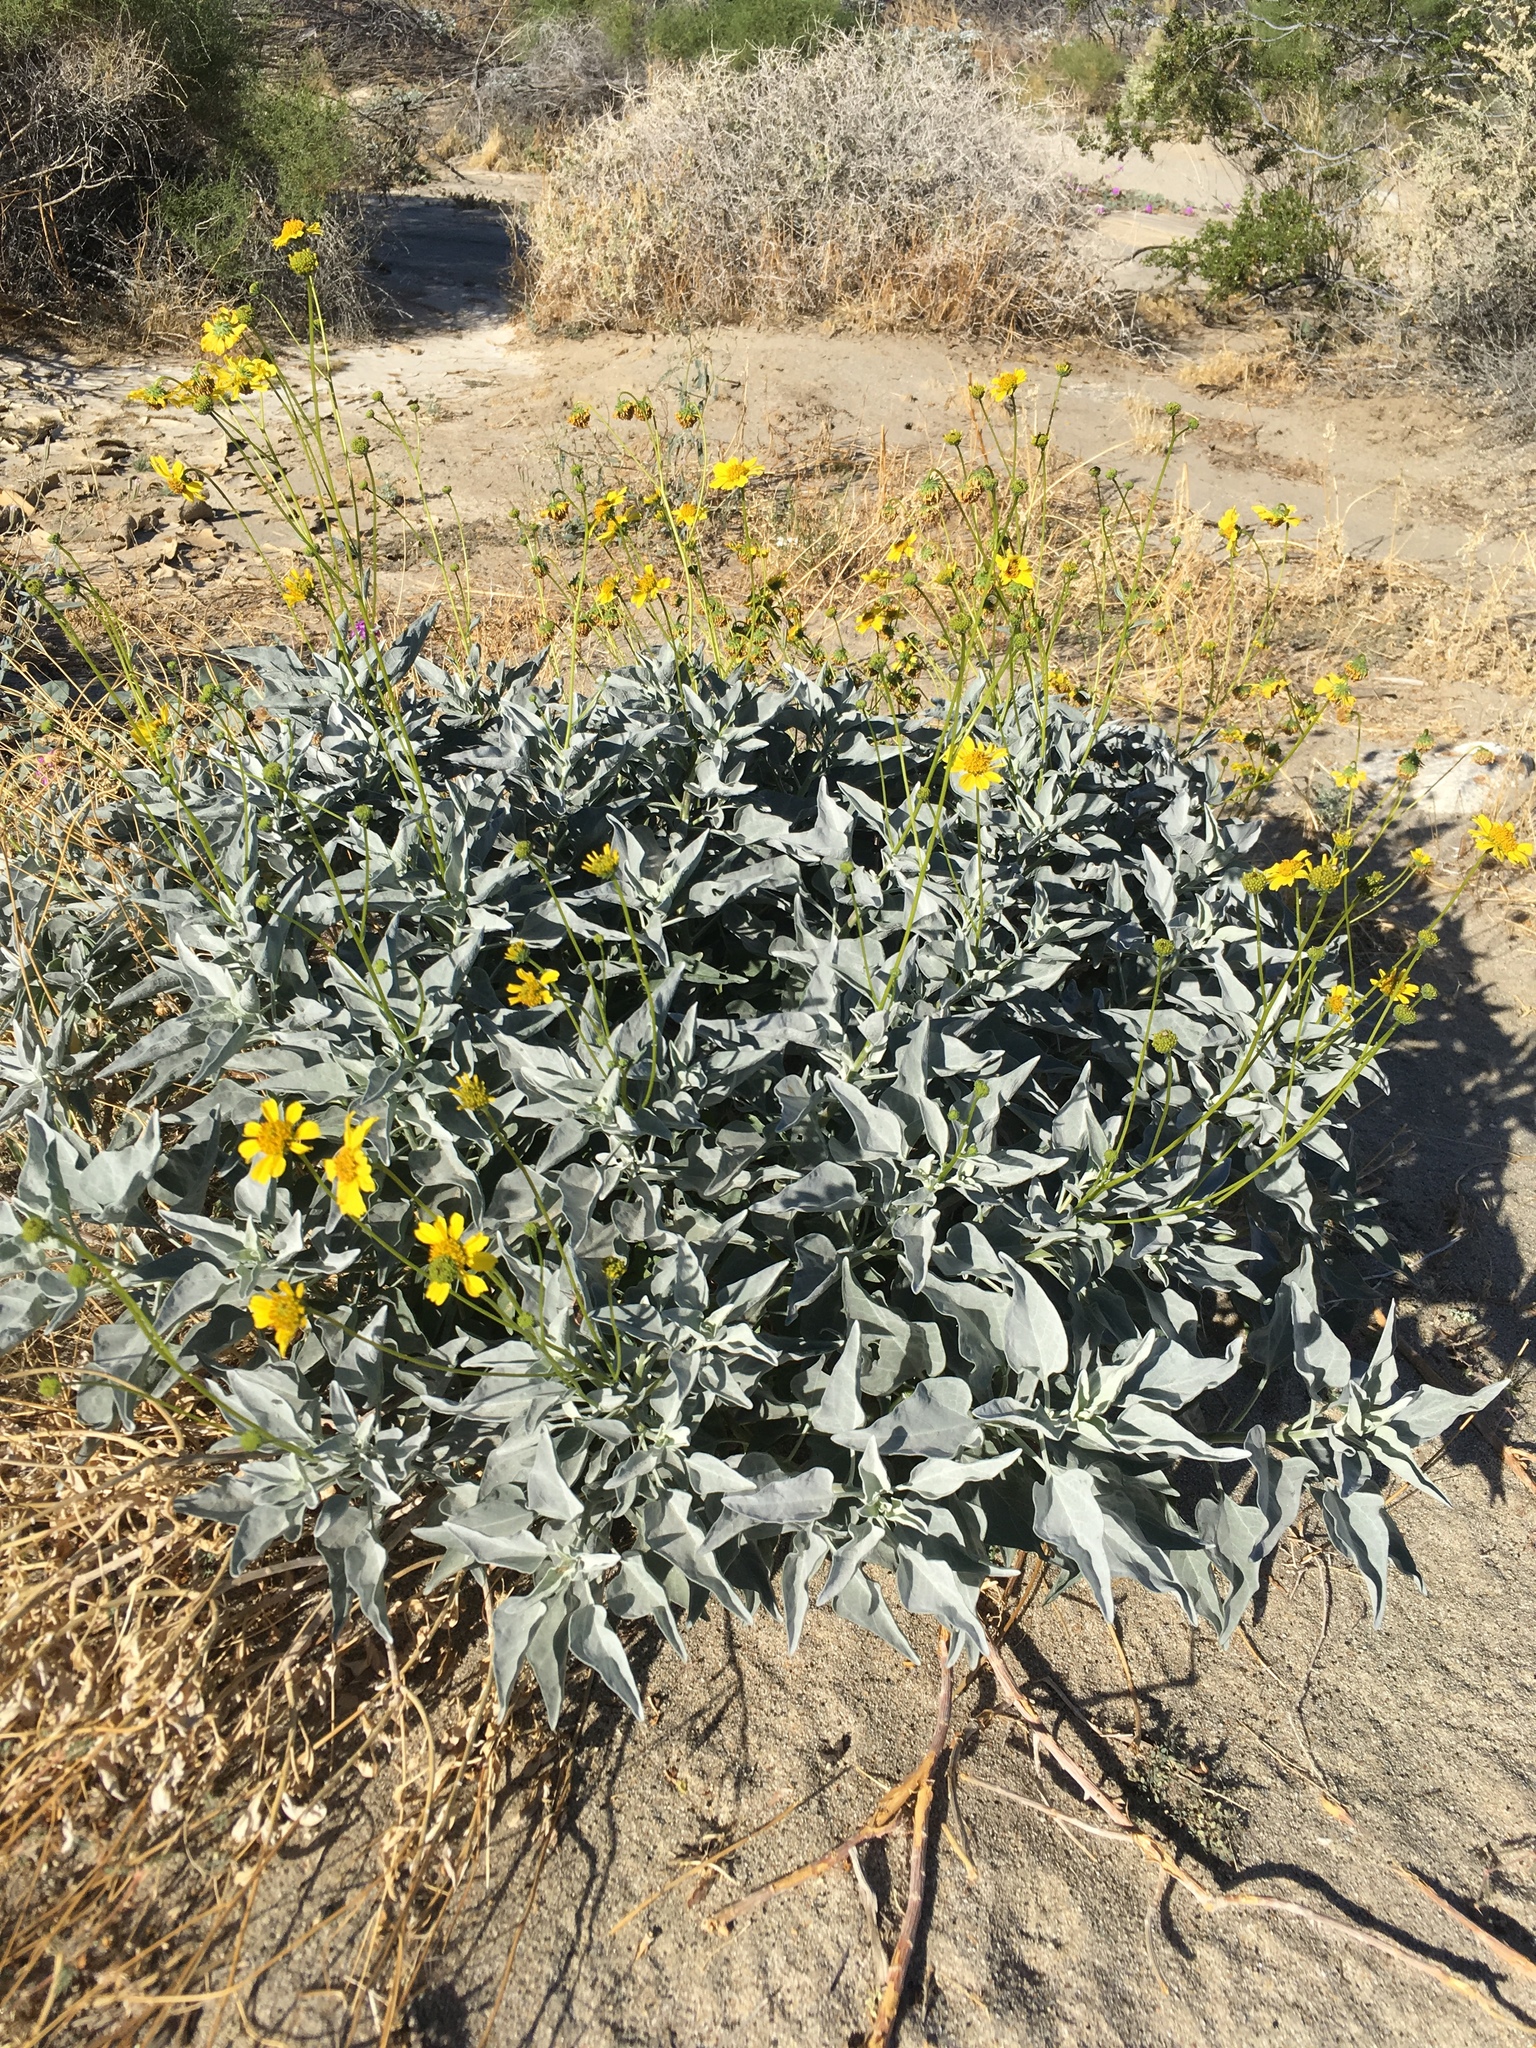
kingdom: Plantae
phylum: Tracheophyta
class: Magnoliopsida
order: Asterales
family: Asteraceae
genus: Encelia
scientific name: Encelia farinosa
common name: Brittlebush
